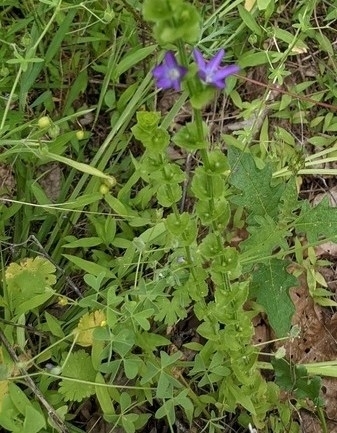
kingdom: Plantae
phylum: Tracheophyta
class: Magnoliopsida
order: Asterales
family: Campanulaceae
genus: Triodanis
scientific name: Triodanis perfoliata
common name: Clasping venus' looking-glass
